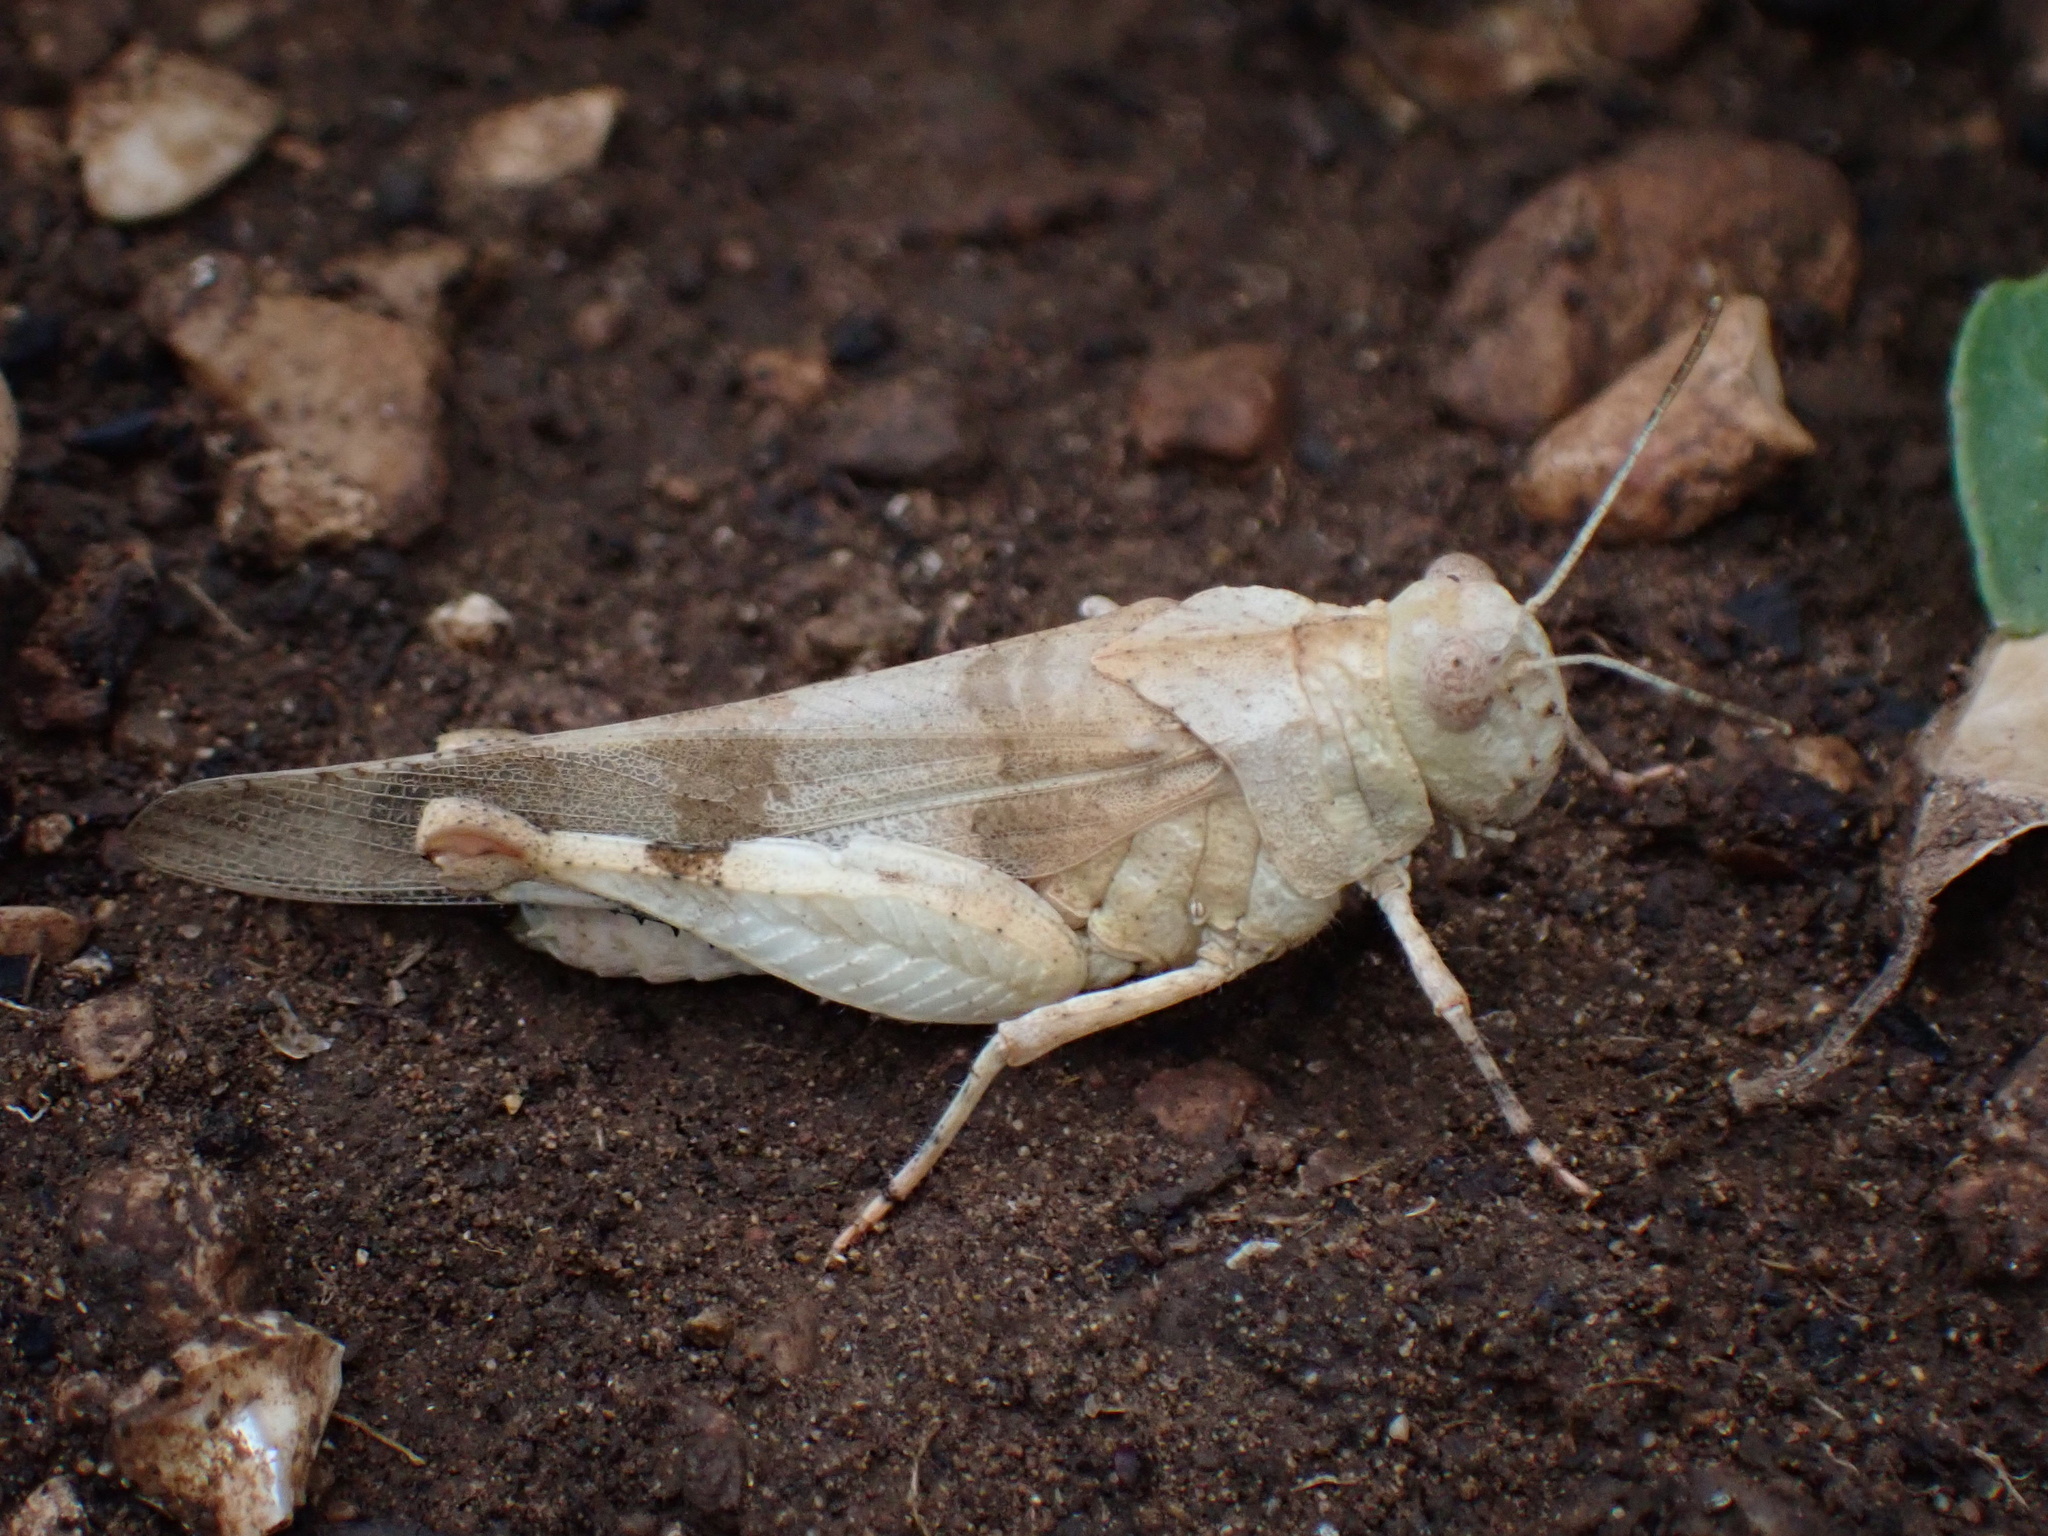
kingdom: Animalia
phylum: Arthropoda
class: Insecta
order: Orthoptera
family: Acrididae
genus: Oedipoda
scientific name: Oedipoda caerulescens
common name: Blue-winged grasshopper
